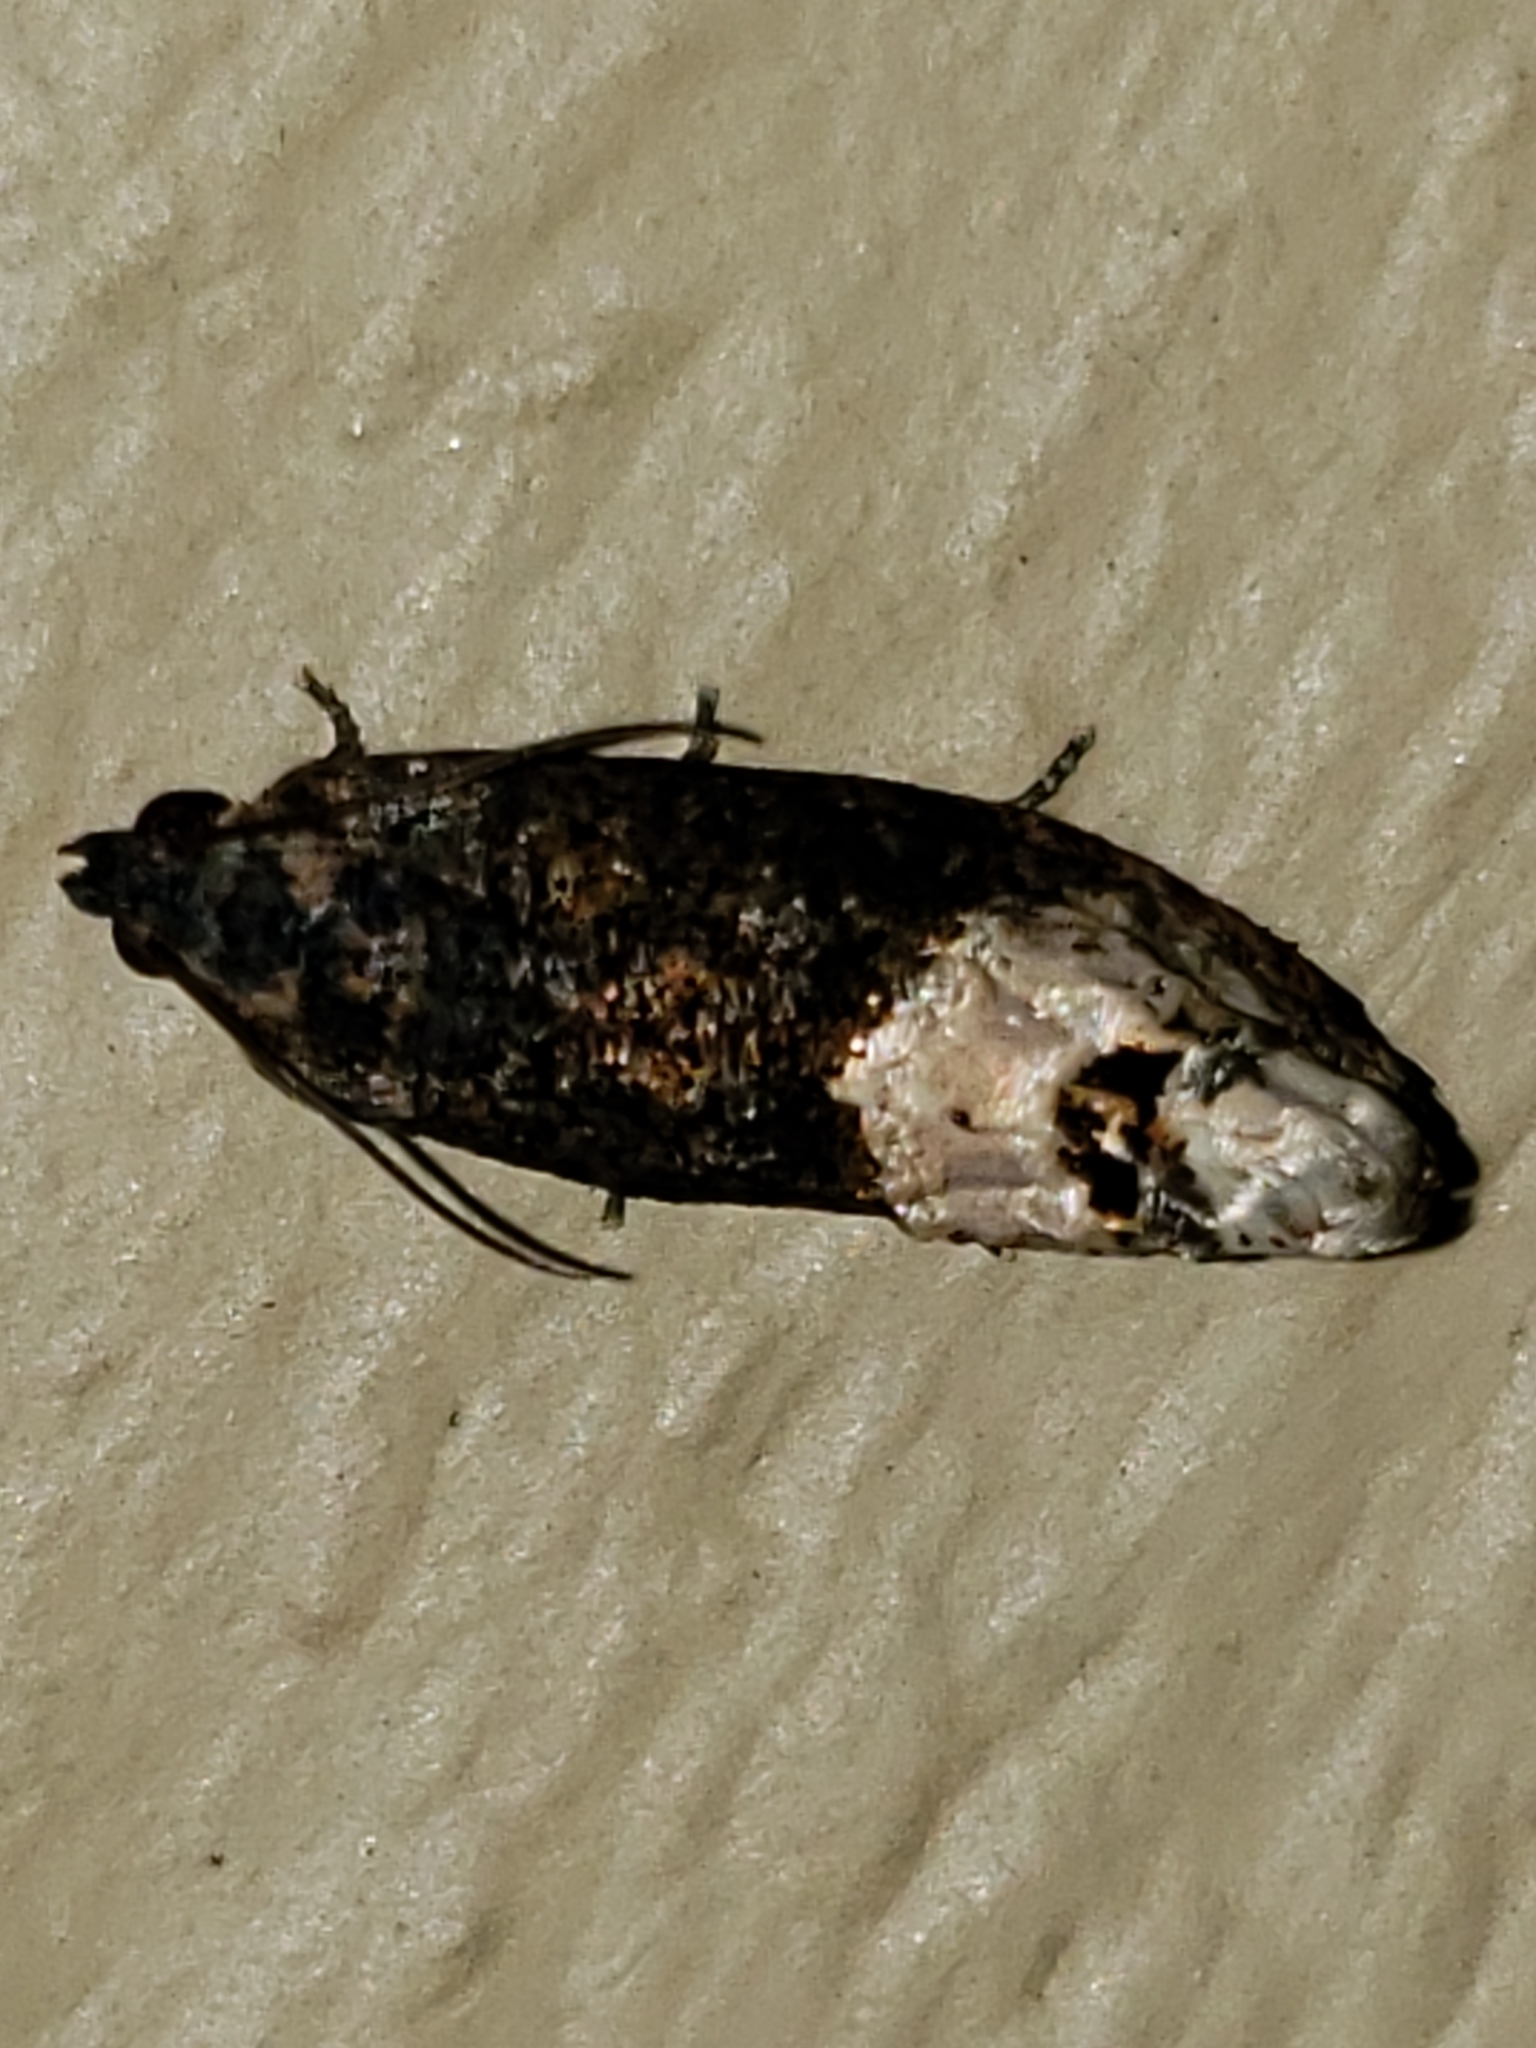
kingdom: Animalia
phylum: Arthropoda
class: Insecta
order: Lepidoptera
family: Tortricidae
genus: Ecdytolopha
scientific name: Ecdytolopha insiticiana
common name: Locust twig borer moth
